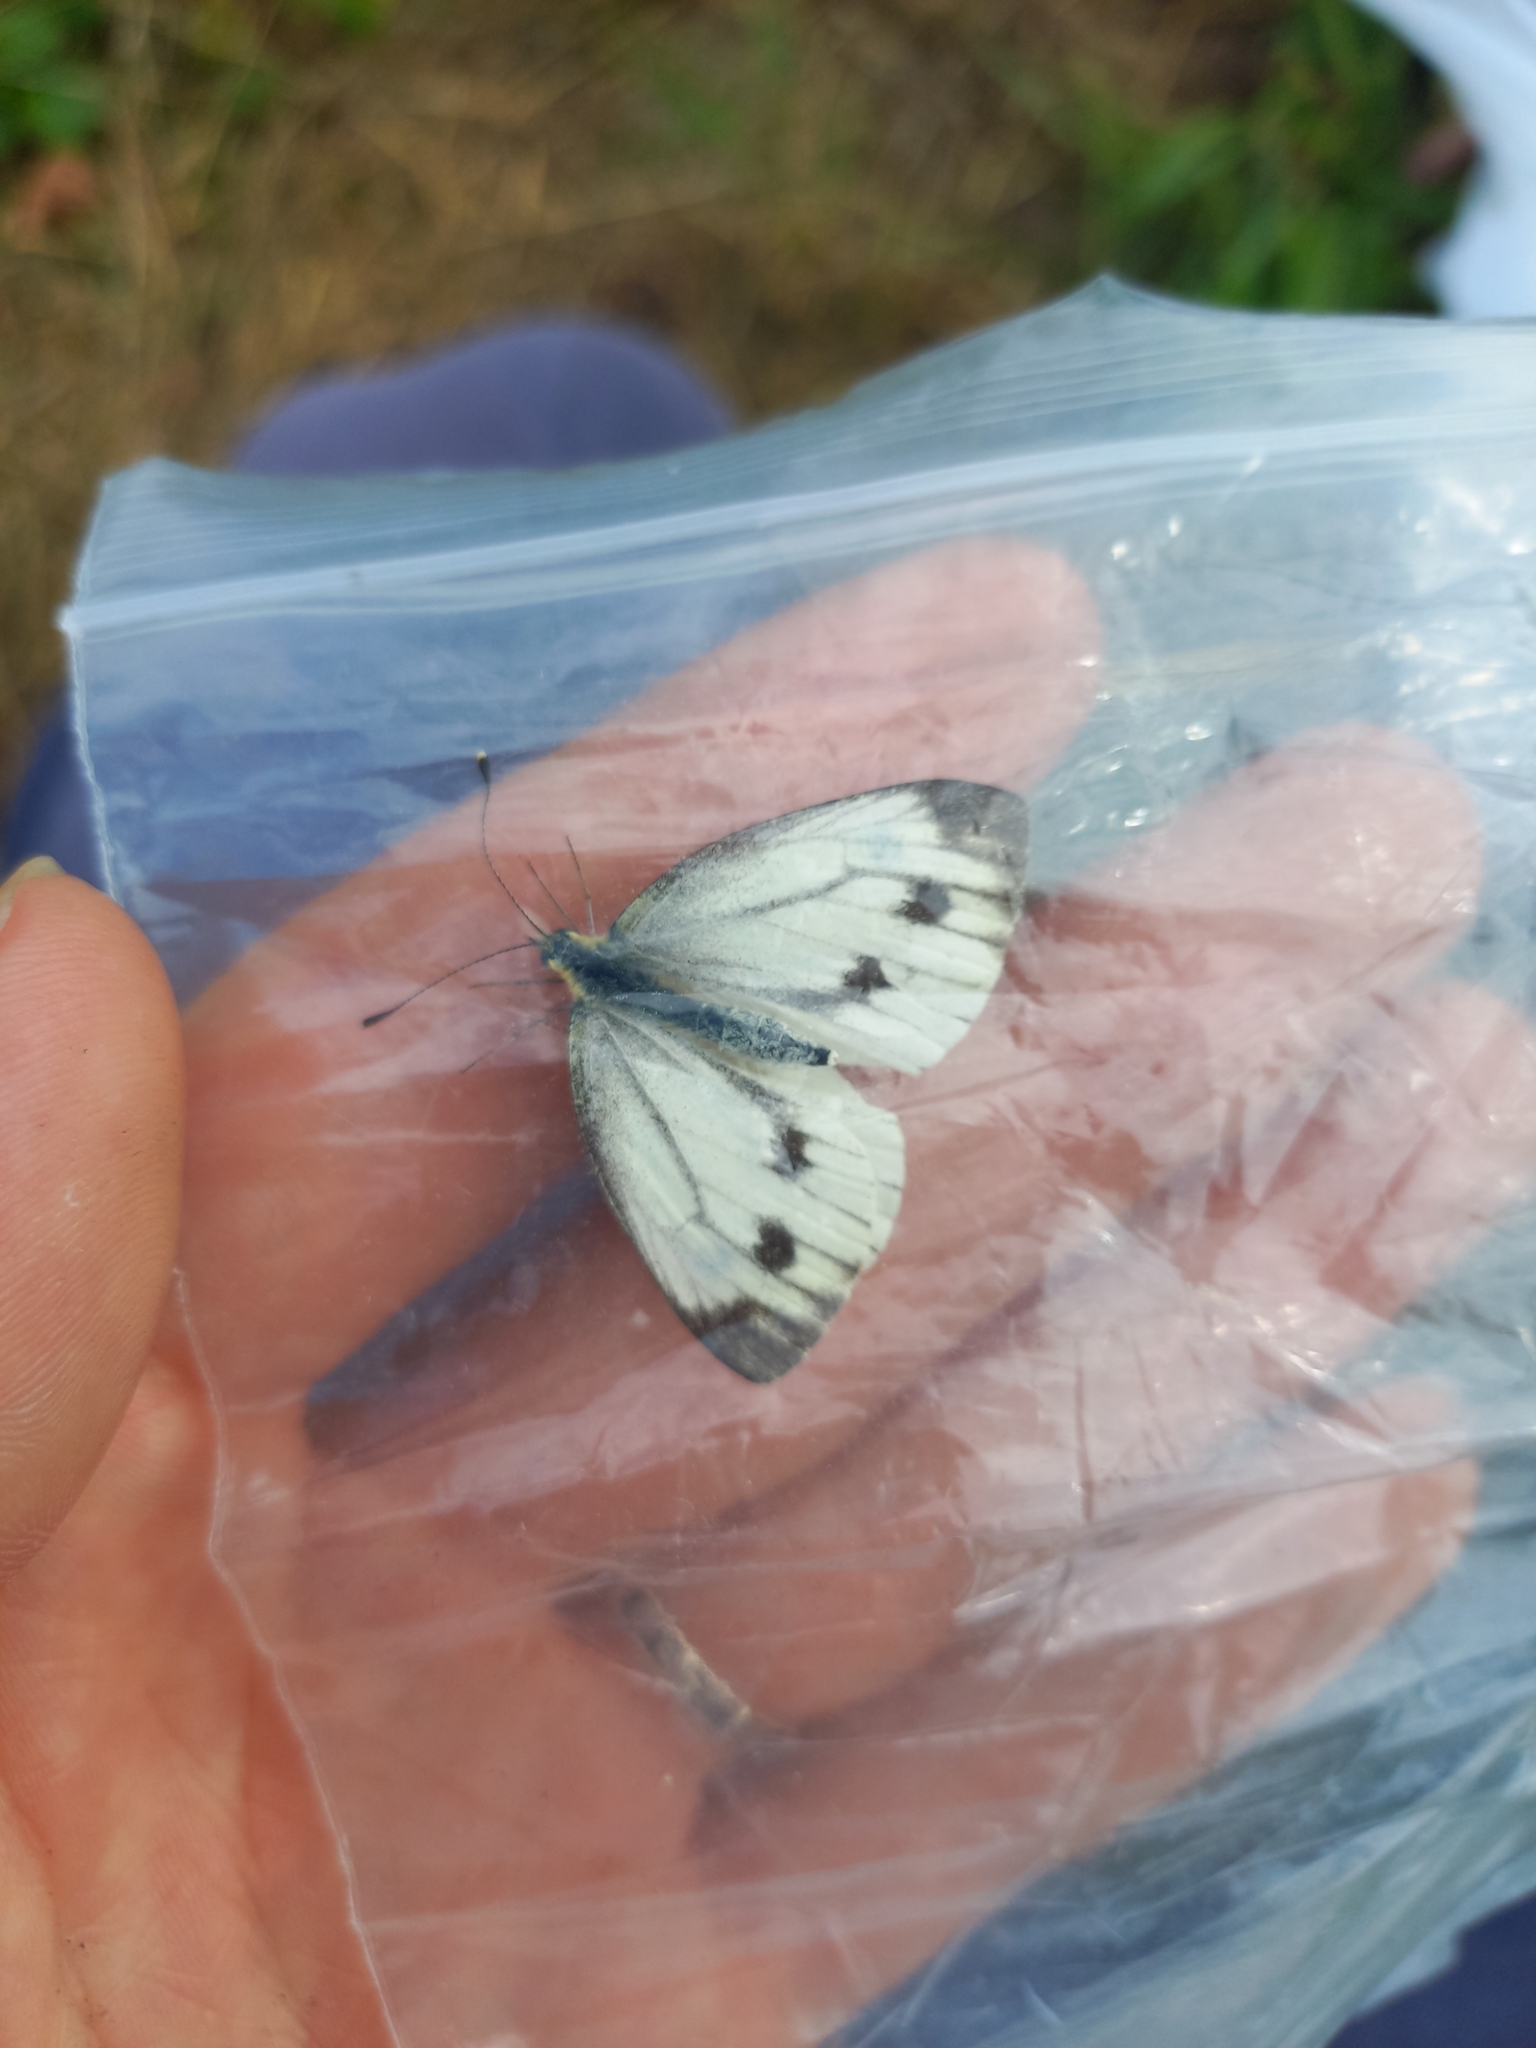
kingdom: Animalia
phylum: Arthropoda
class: Insecta
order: Lepidoptera
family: Pieridae
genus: Pieris
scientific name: Pieris napi
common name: Green-veined white
